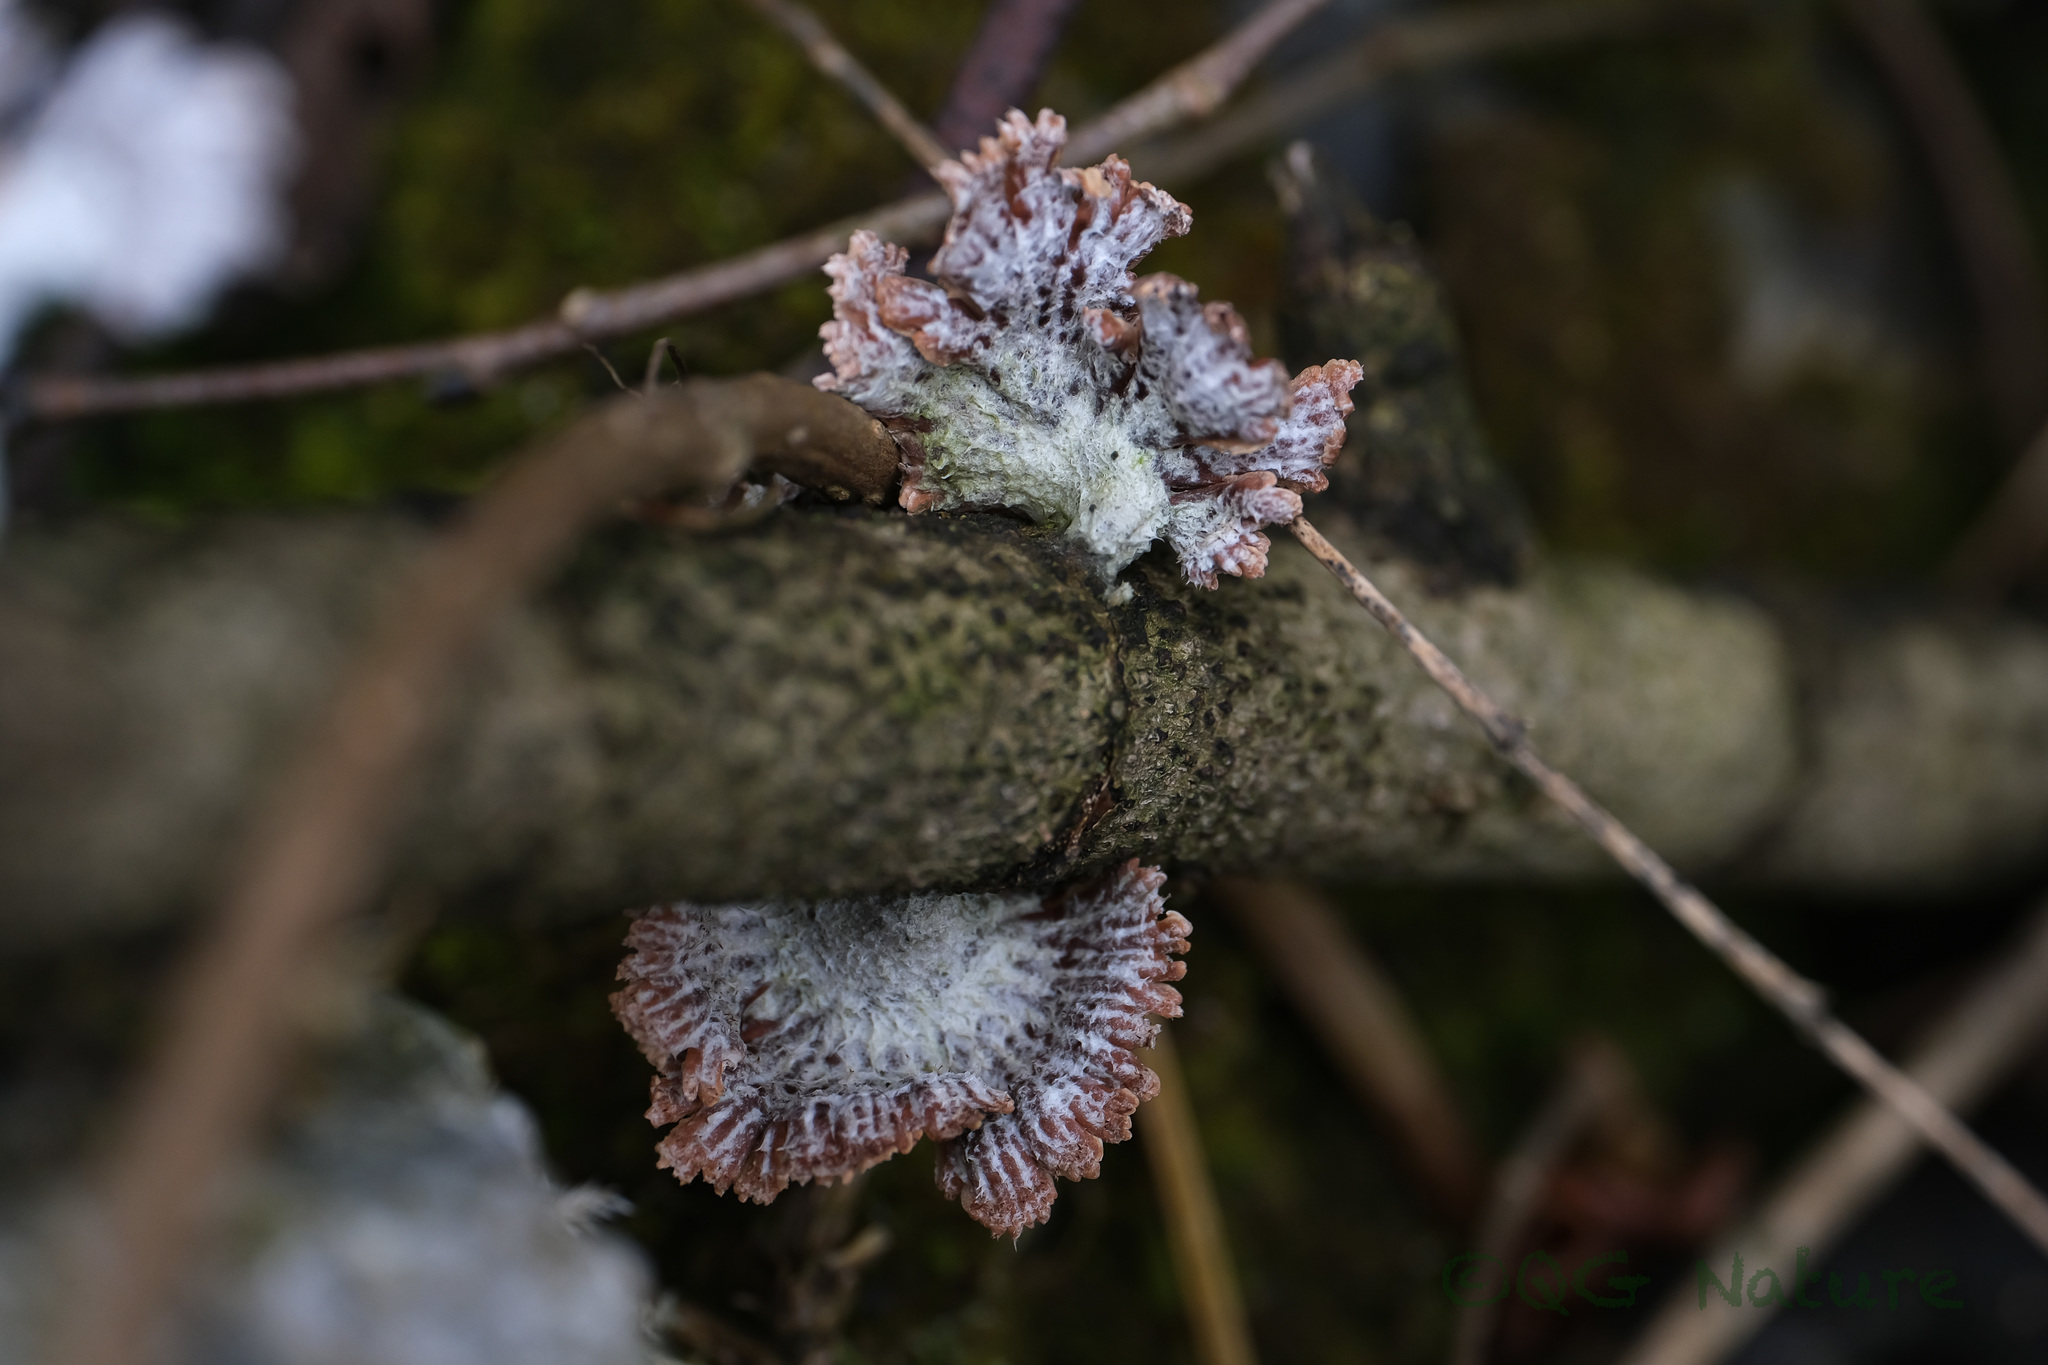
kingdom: Fungi
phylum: Basidiomycota
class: Agaricomycetes
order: Agaricales
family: Schizophyllaceae
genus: Schizophyllum
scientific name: Schizophyllum commune
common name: Common porecrust
